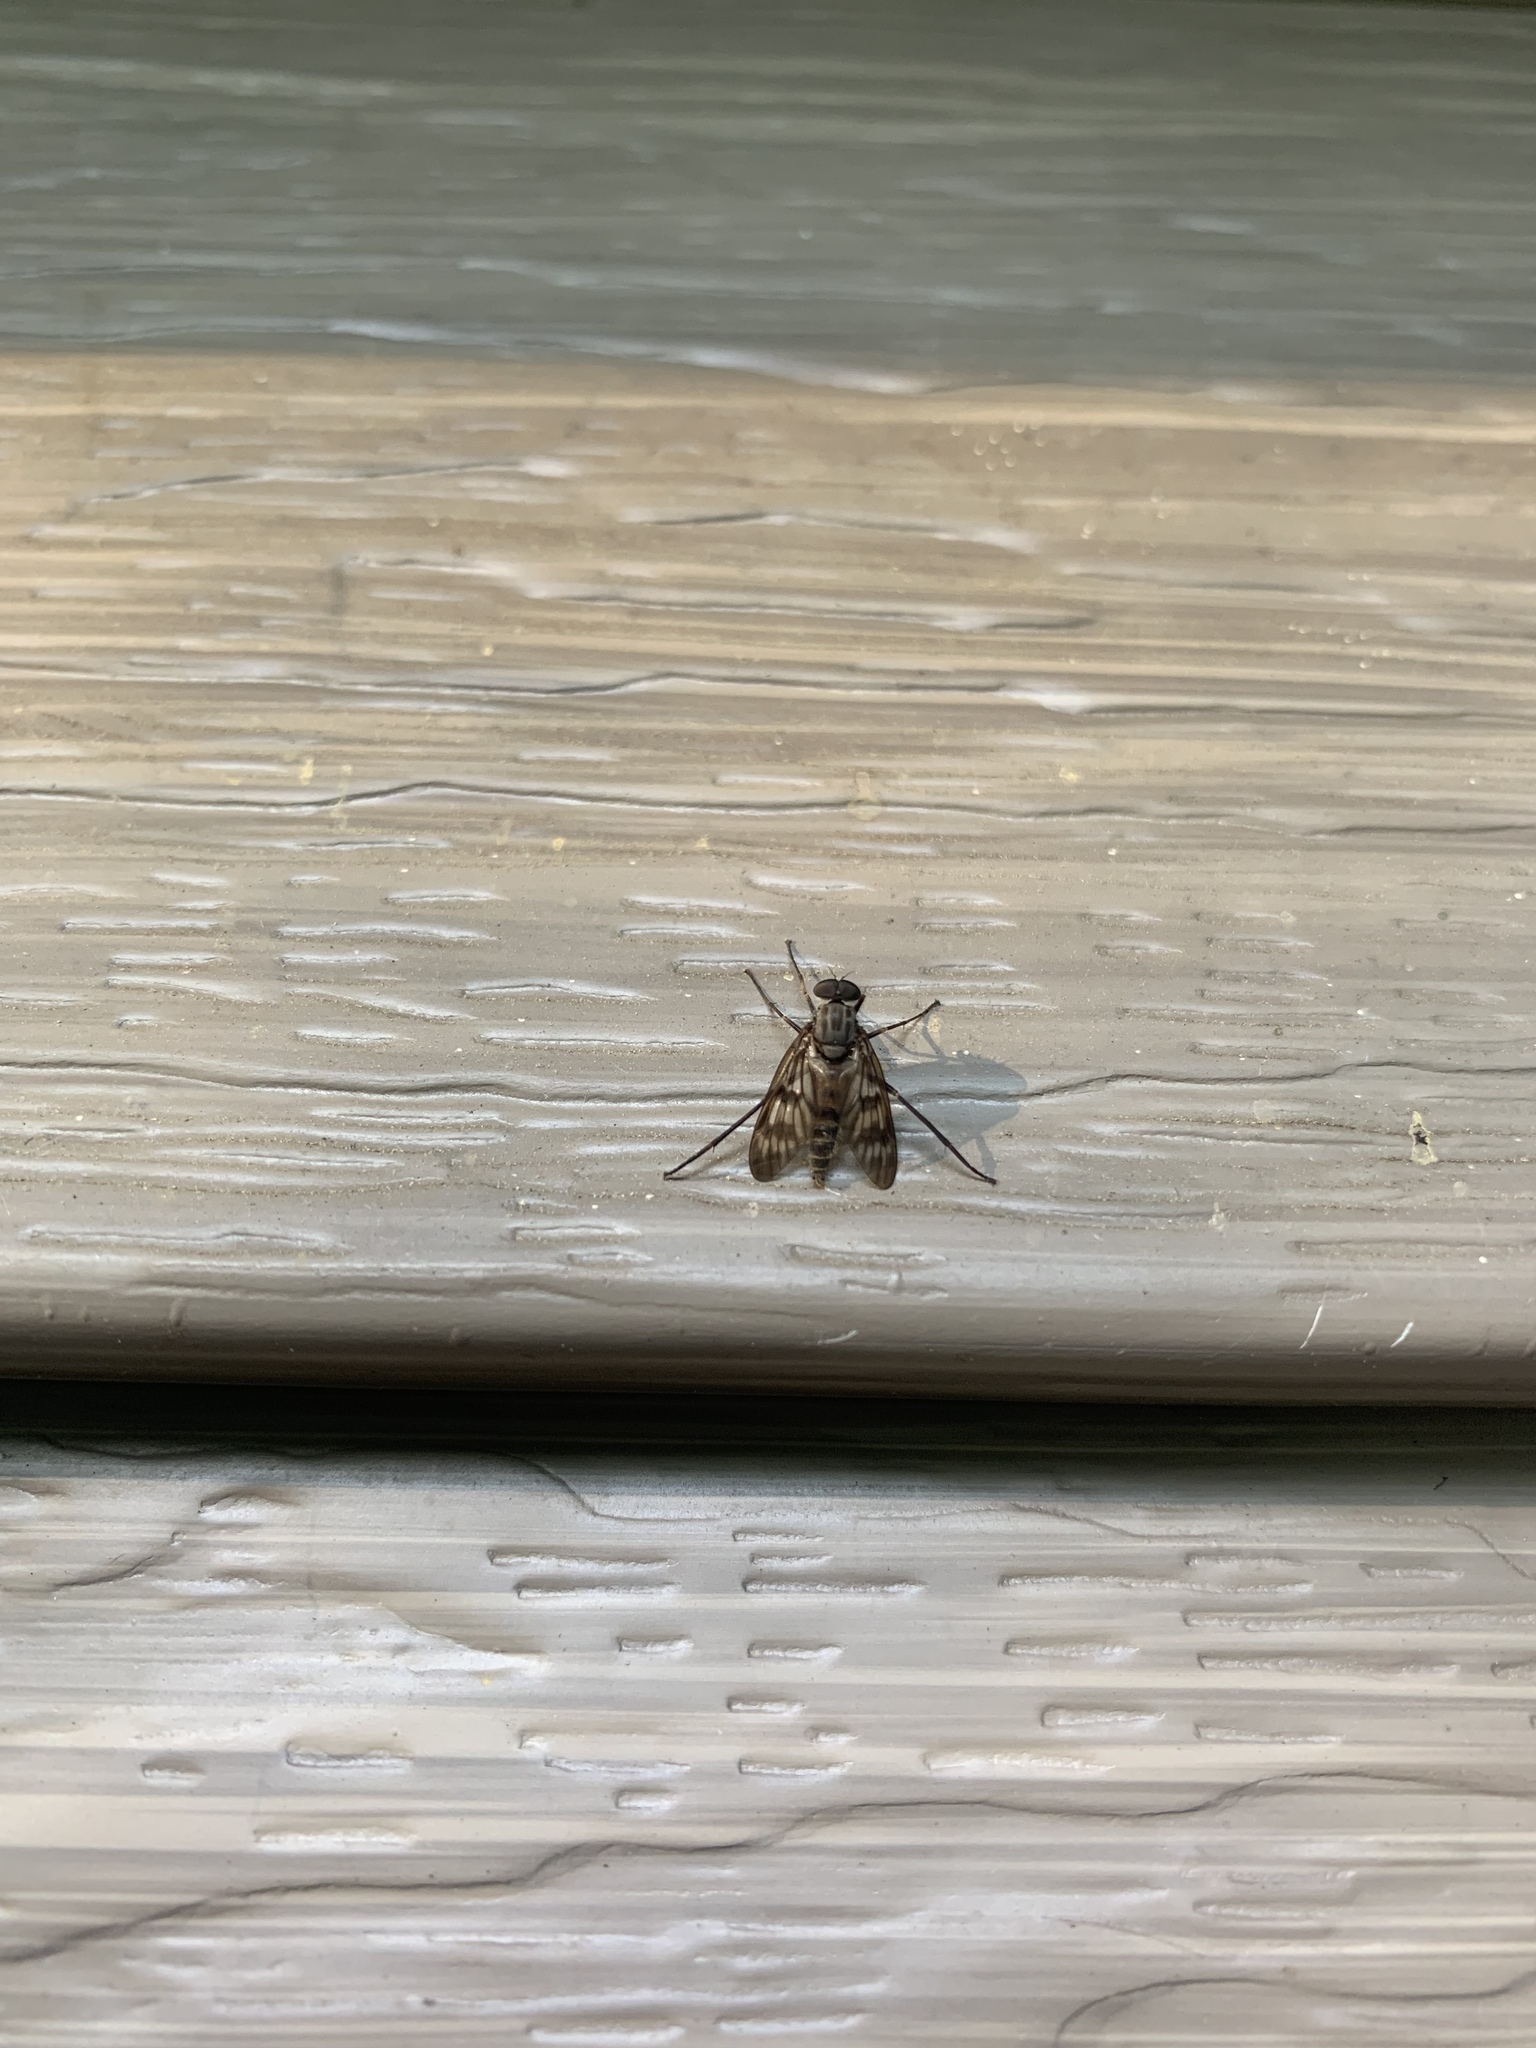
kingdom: Animalia
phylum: Arthropoda
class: Insecta
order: Diptera
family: Rhagionidae
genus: Rhagio
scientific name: Rhagio mystaceus
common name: Common snipe fly
